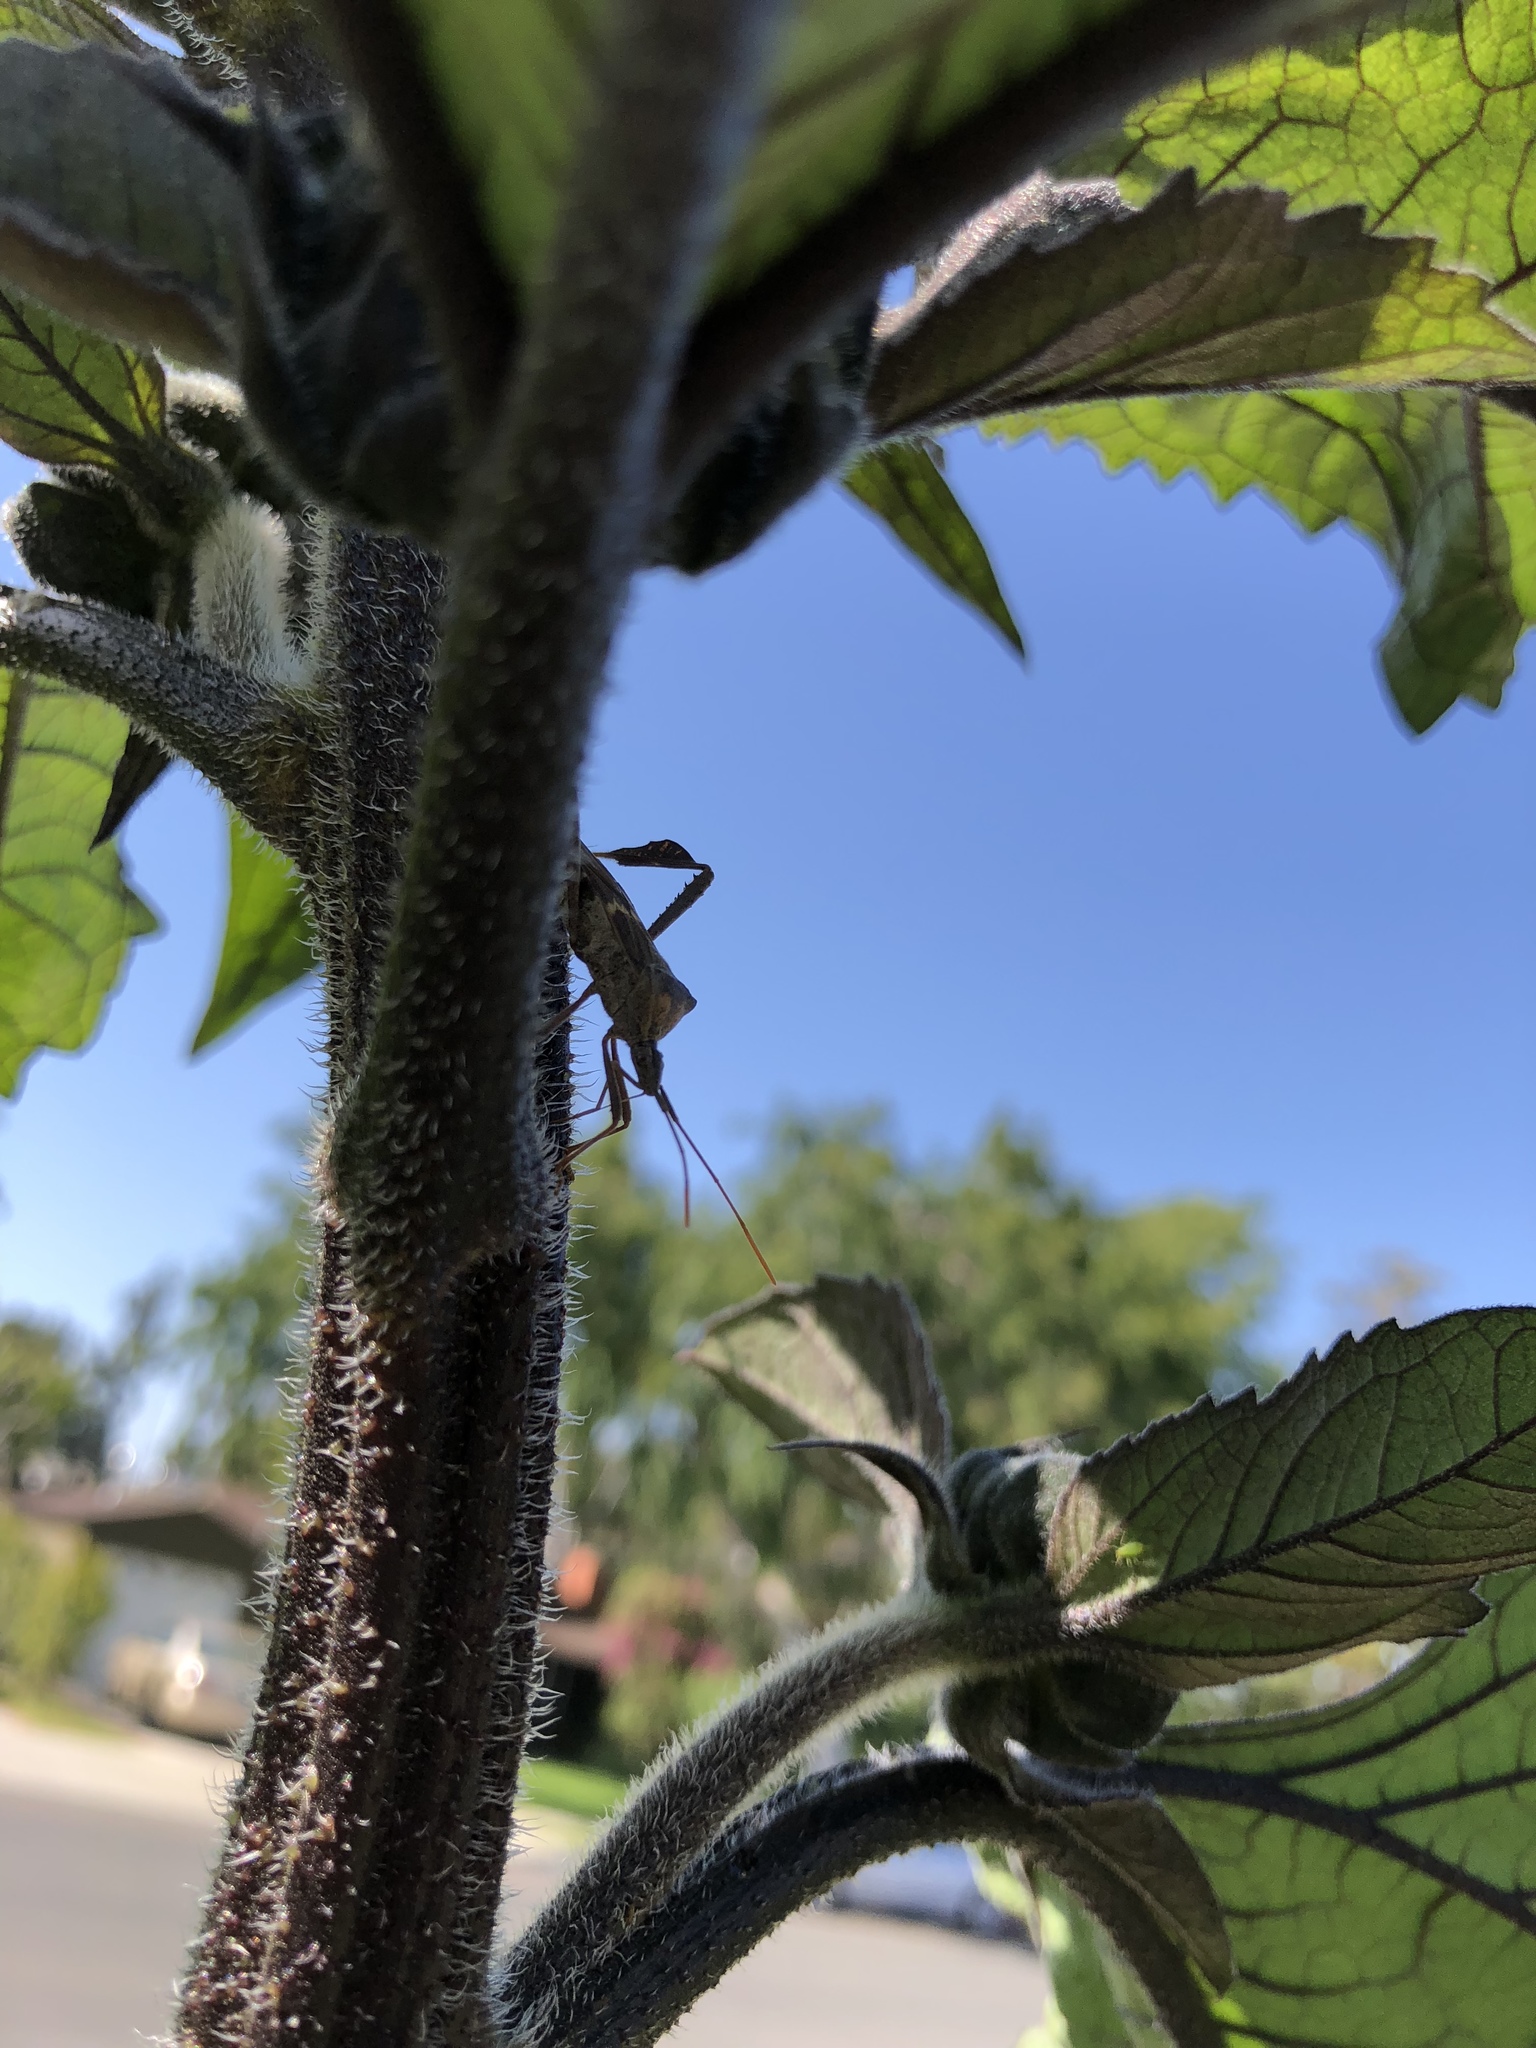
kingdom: Animalia
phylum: Arthropoda
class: Insecta
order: Hemiptera
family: Coreidae
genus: Leptoglossus
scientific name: Leptoglossus zonatus
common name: Large-legged bug
